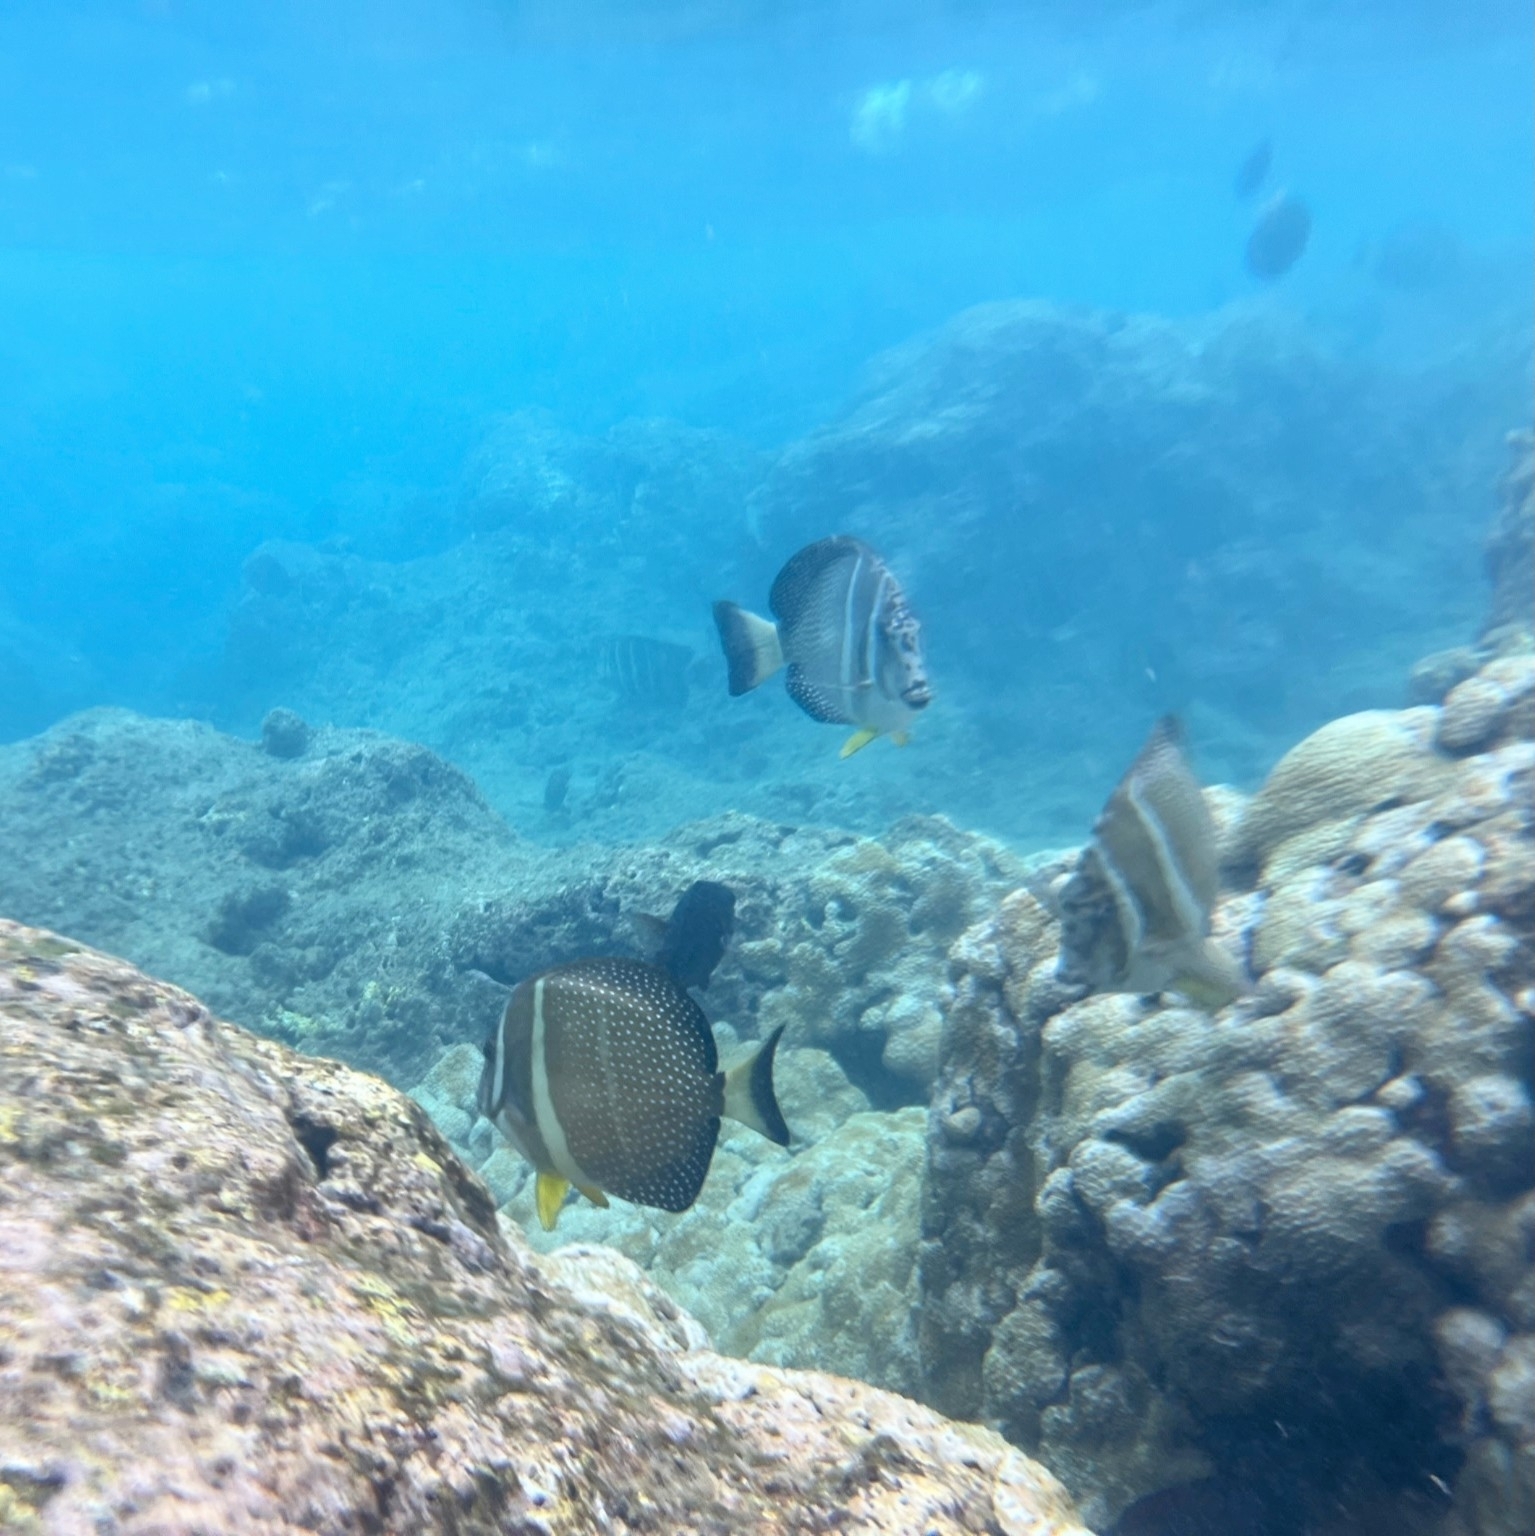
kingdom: Animalia
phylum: Chordata
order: Perciformes
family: Acanthuridae
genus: Acanthurus
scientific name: Acanthurus guttatus
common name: Whitespotted surgeonfish
